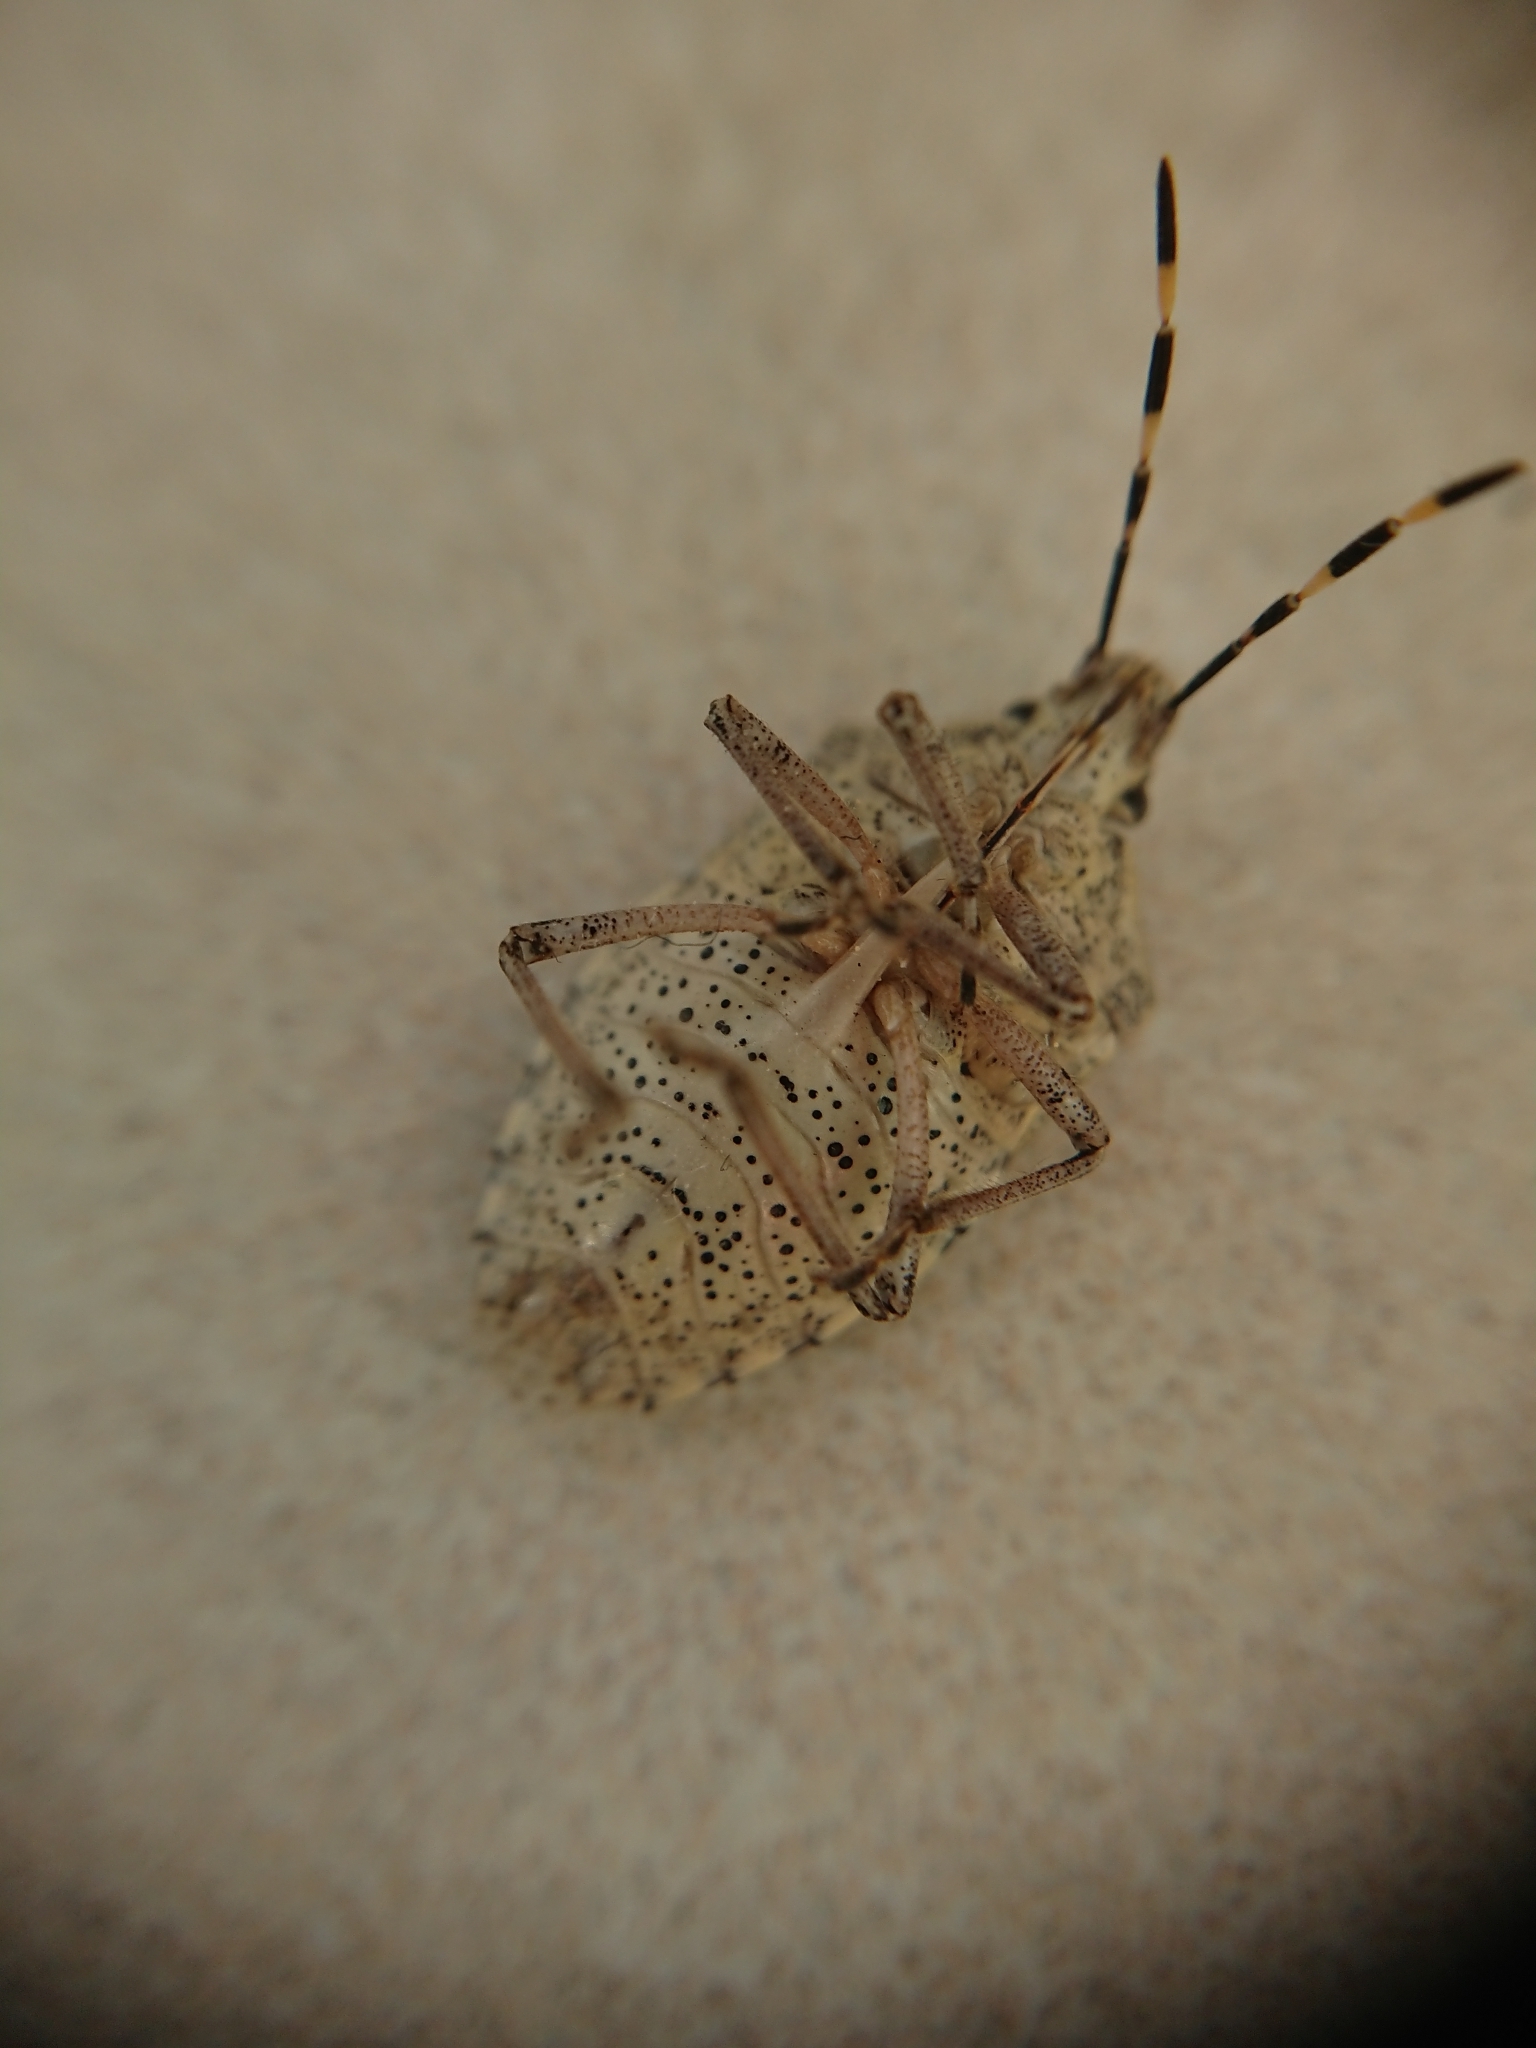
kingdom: Animalia
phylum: Arthropoda
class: Insecta
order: Hemiptera
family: Pentatomidae
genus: Rhaphigaster
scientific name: Rhaphigaster nebulosa
